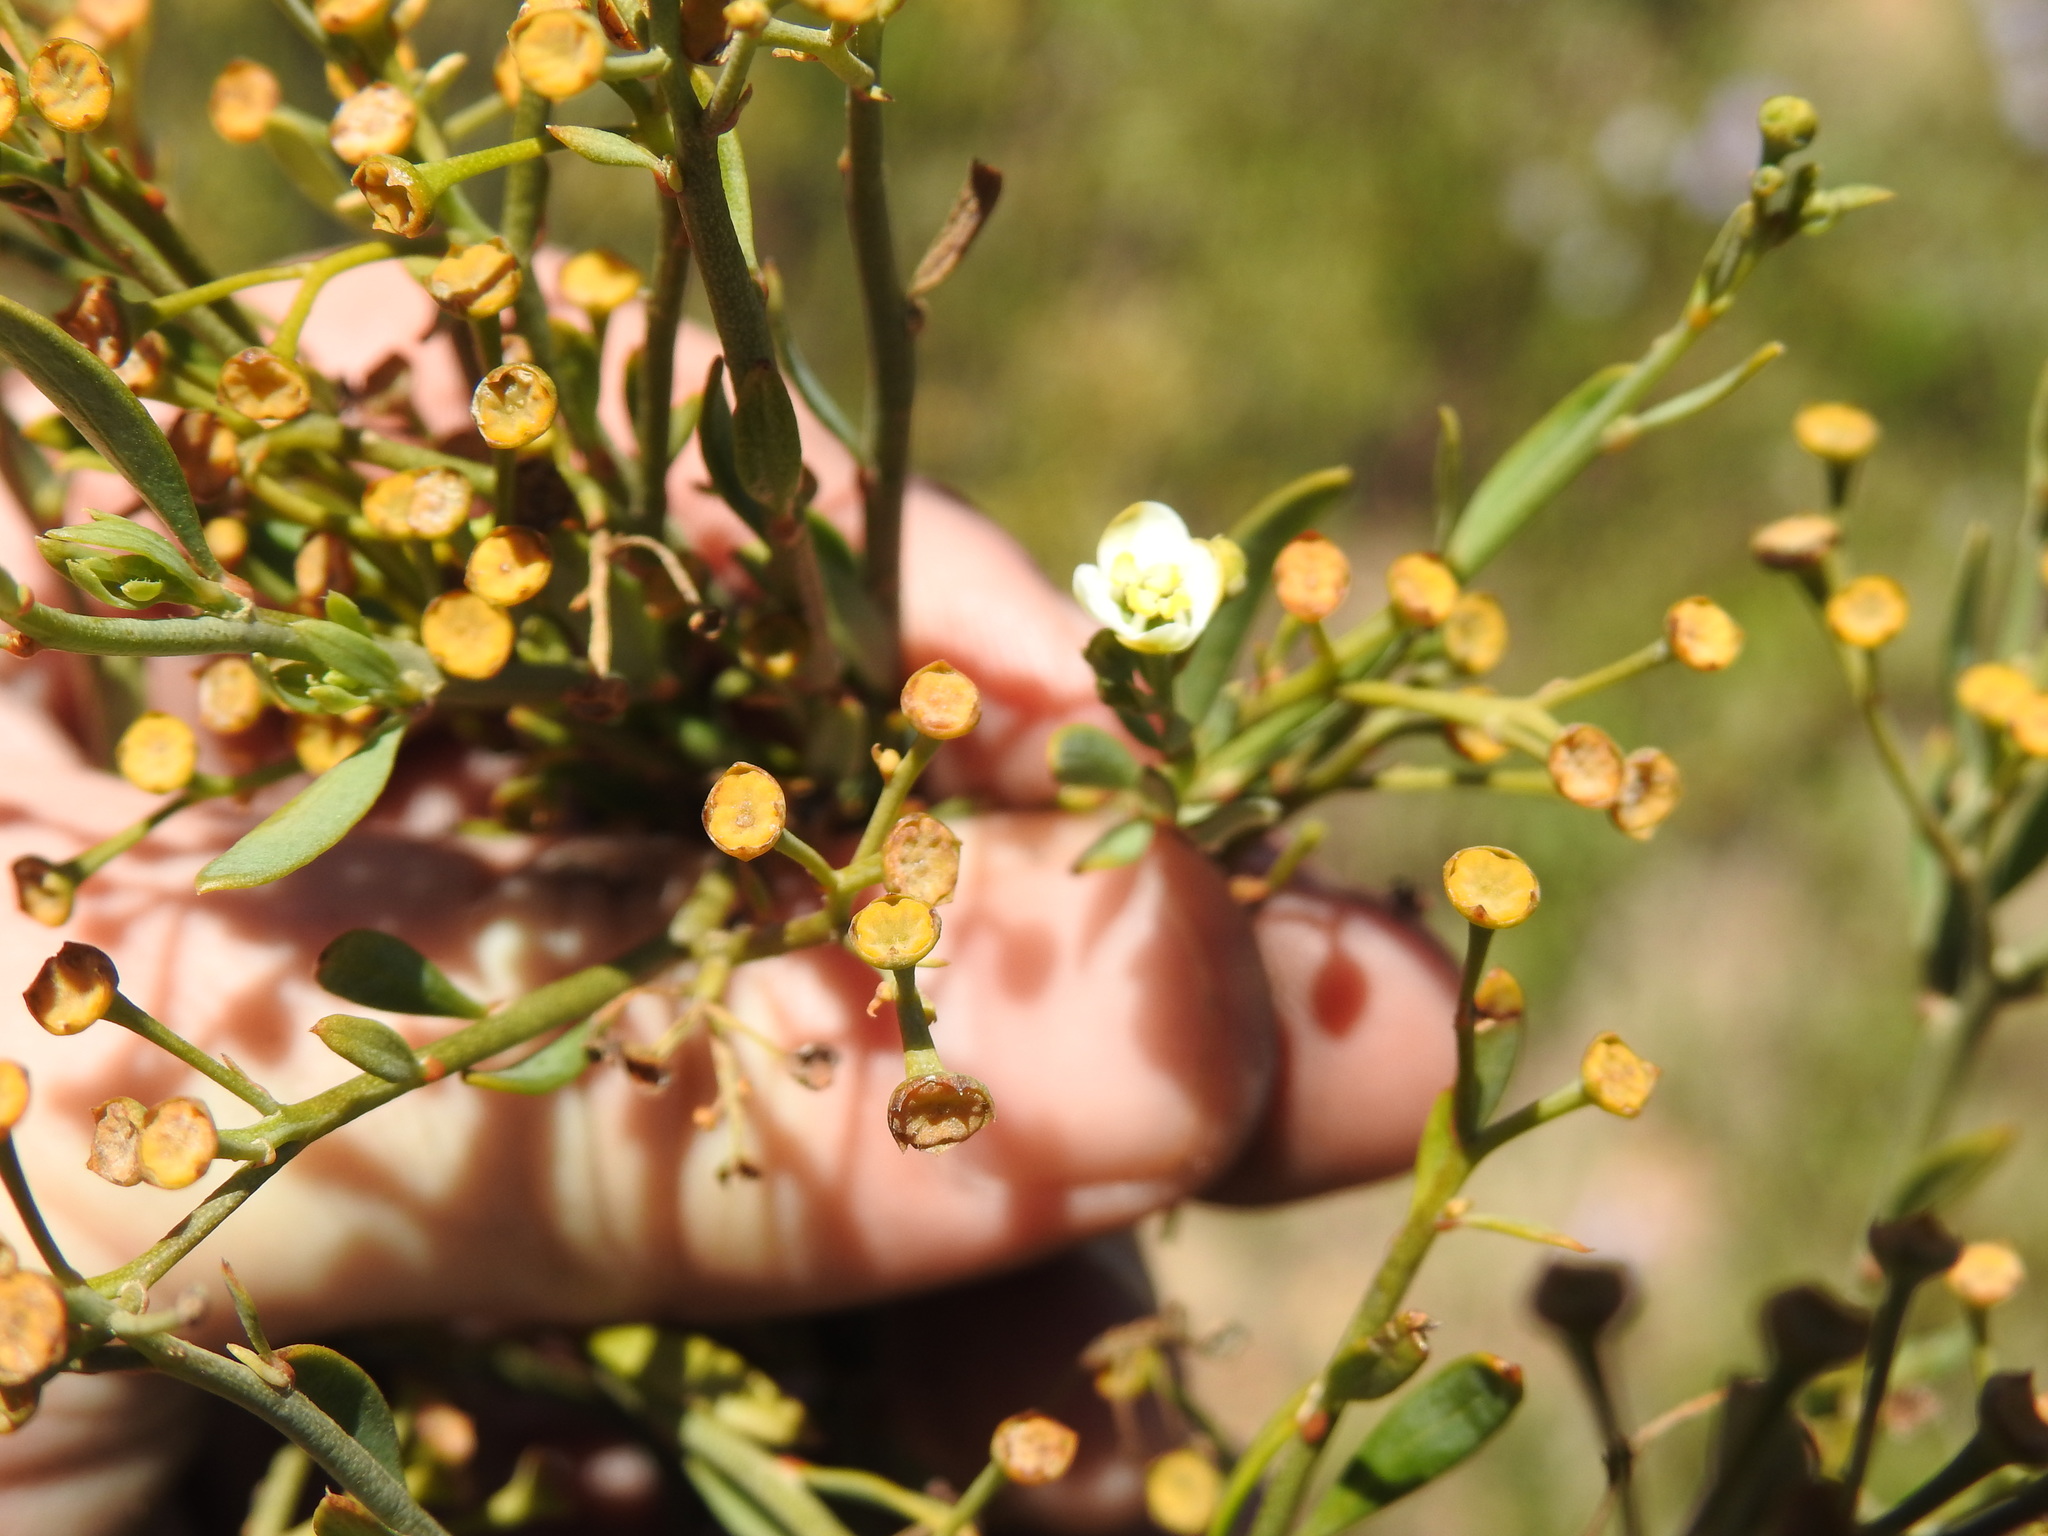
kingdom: Plantae
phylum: Tracheophyta
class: Magnoliopsida
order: Solanales
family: Montiniaceae
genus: Montinia
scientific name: Montinia caryophyllacea
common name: Wild clove-bush
